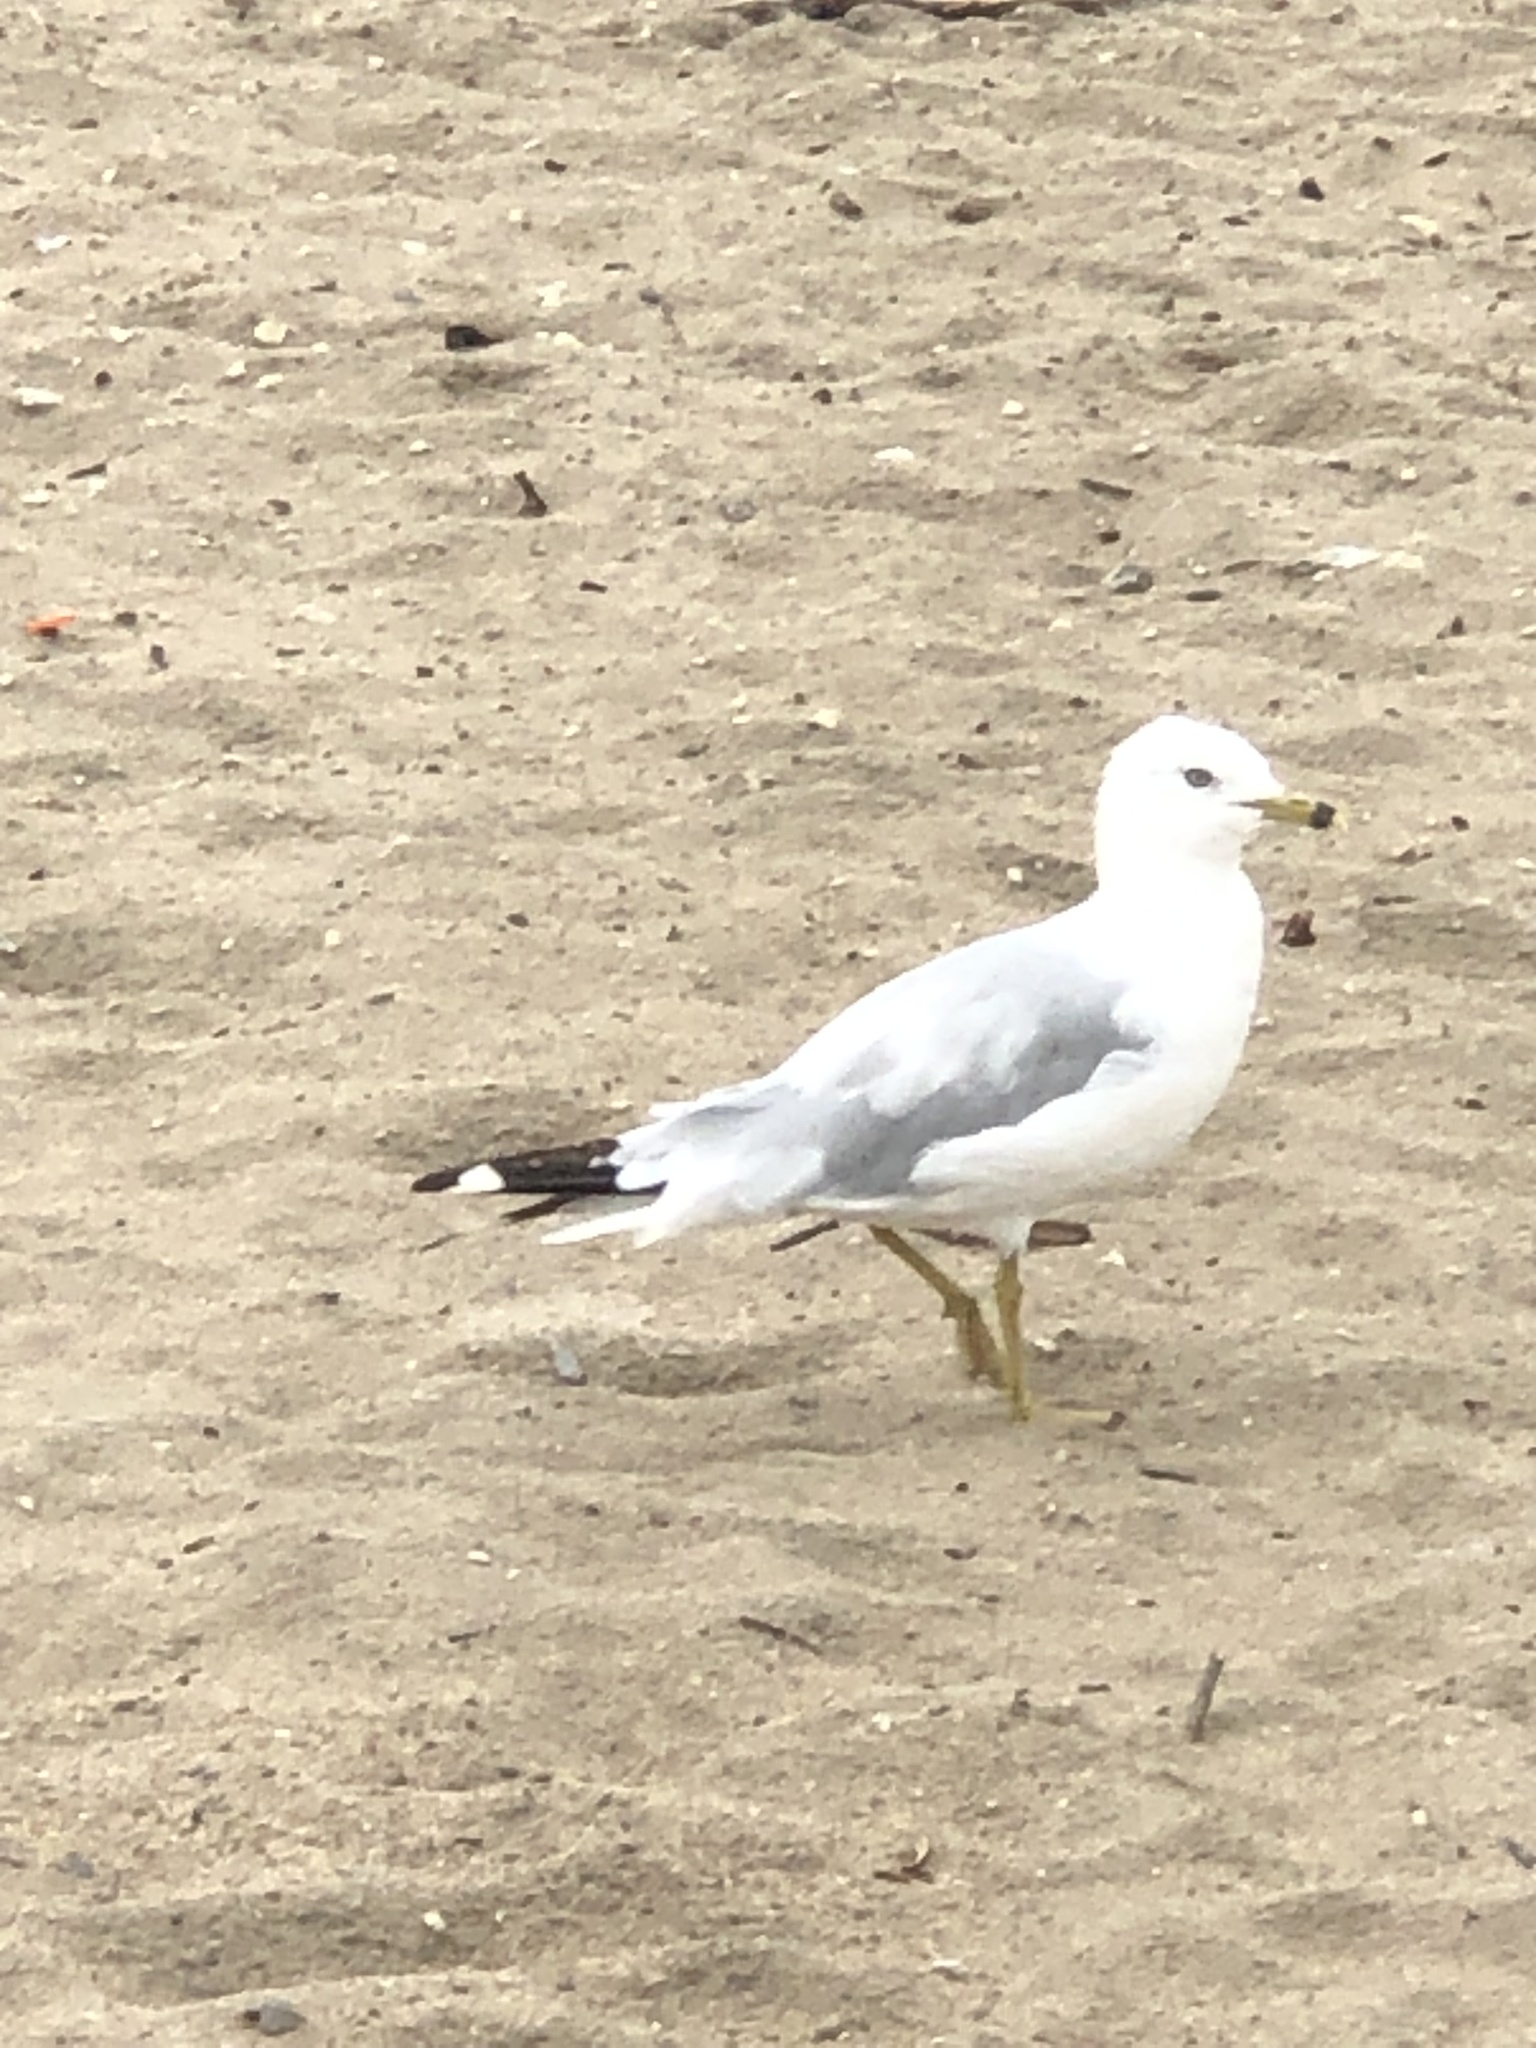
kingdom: Animalia
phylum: Chordata
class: Aves
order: Charadriiformes
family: Laridae
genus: Larus
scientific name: Larus delawarensis
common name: Ring-billed gull
